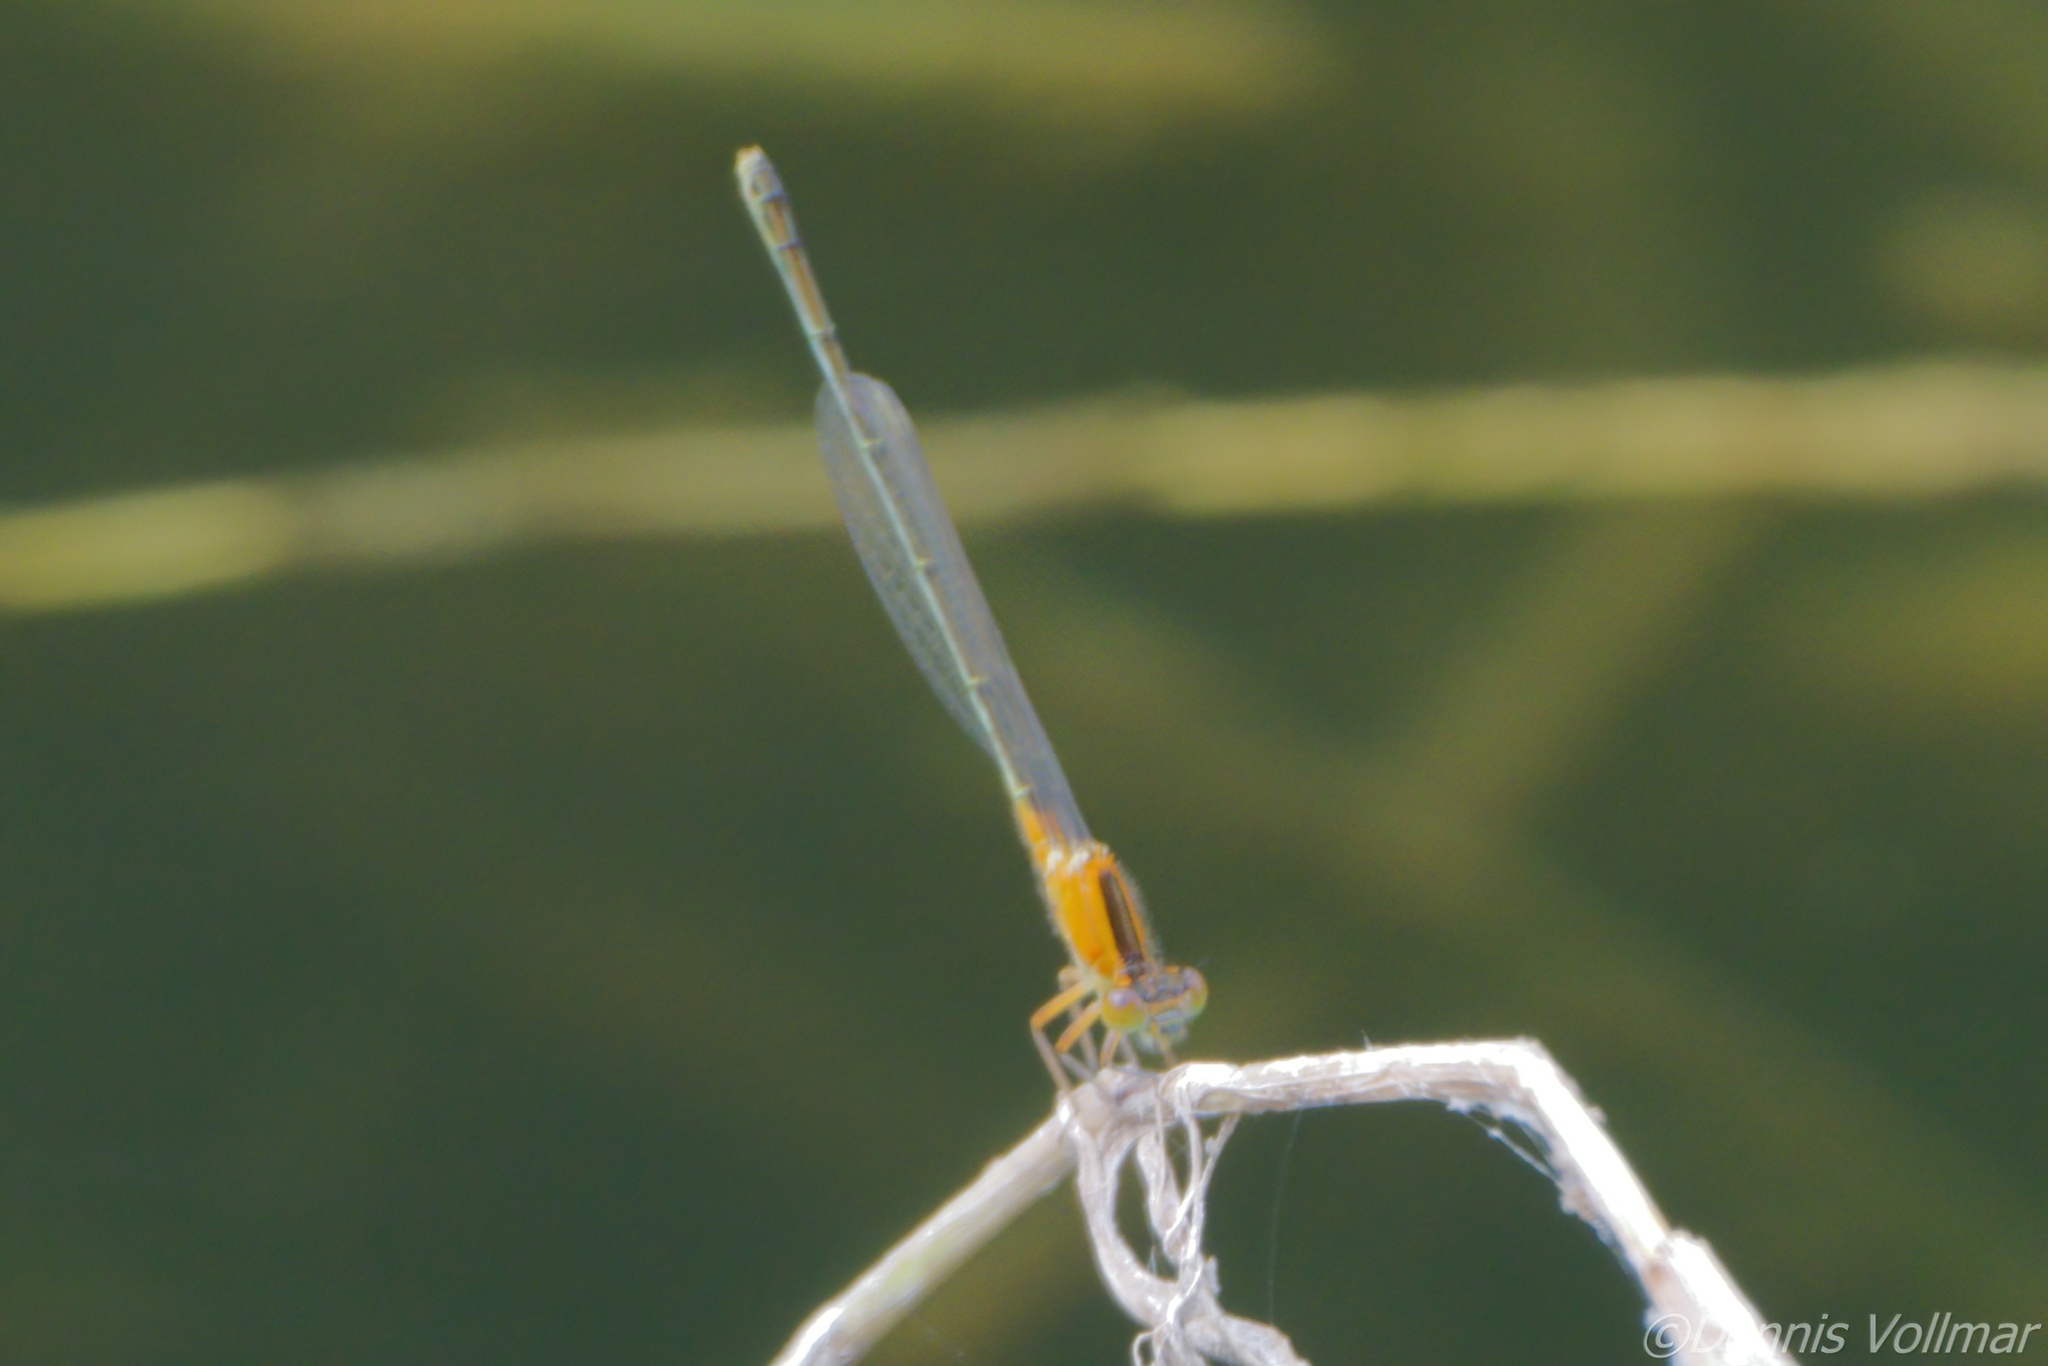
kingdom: Animalia
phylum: Arthropoda
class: Insecta
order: Odonata
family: Coenagrionidae
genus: Ischnura
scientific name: Ischnura ramburii
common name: Rambur's forktail
